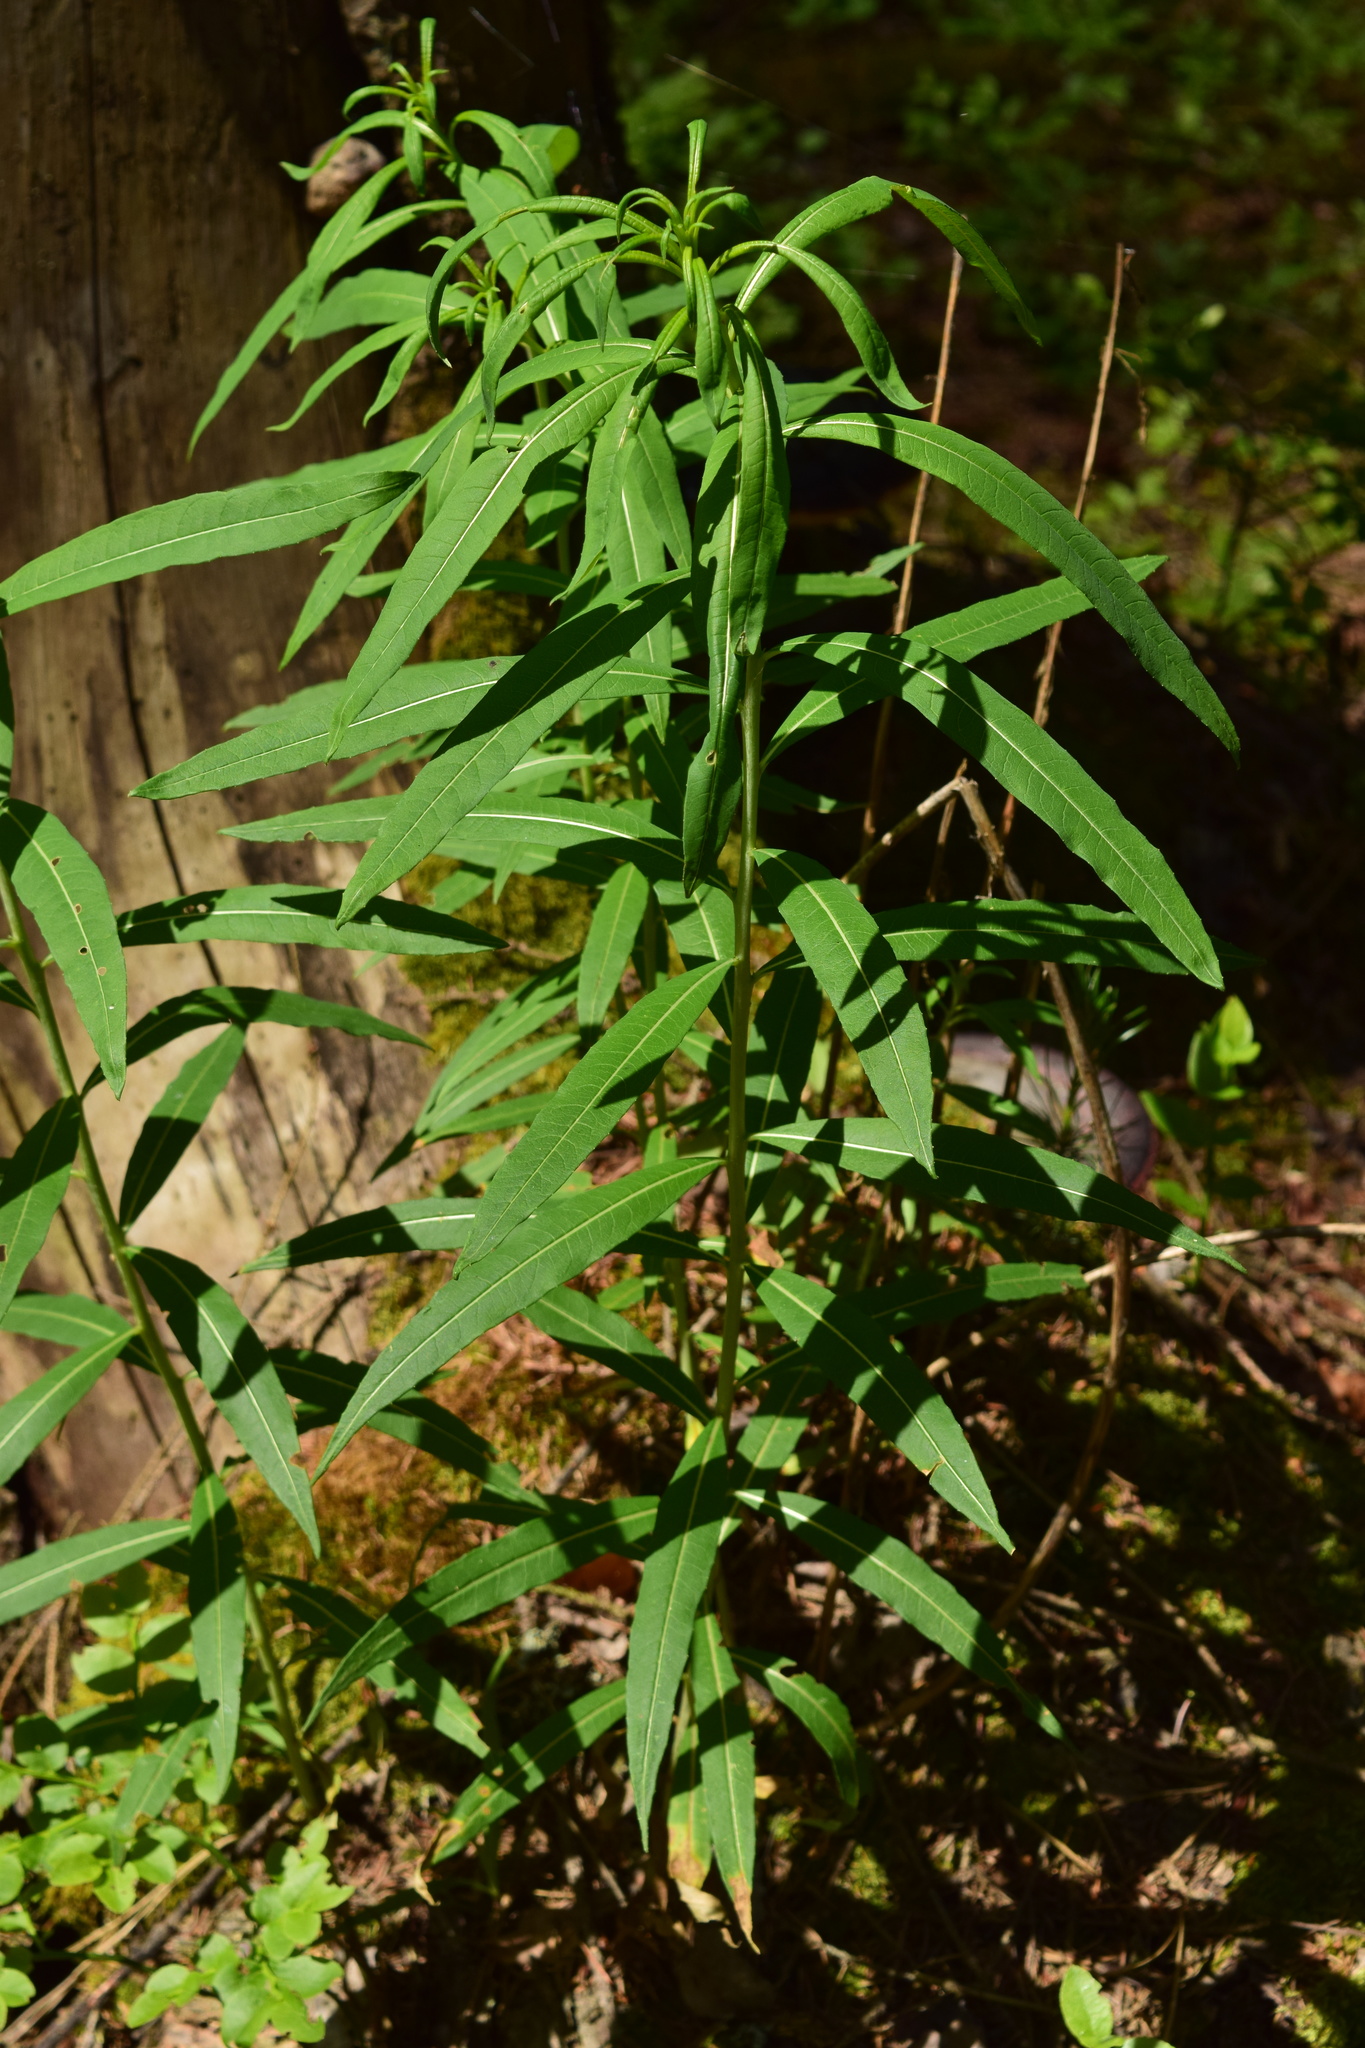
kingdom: Plantae
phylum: Tracheophyta
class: Magnoliopsida
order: Myrtales
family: Onagraceae
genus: Chamaenerion
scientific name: Chamaenerion angustifolium
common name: Fireweed
